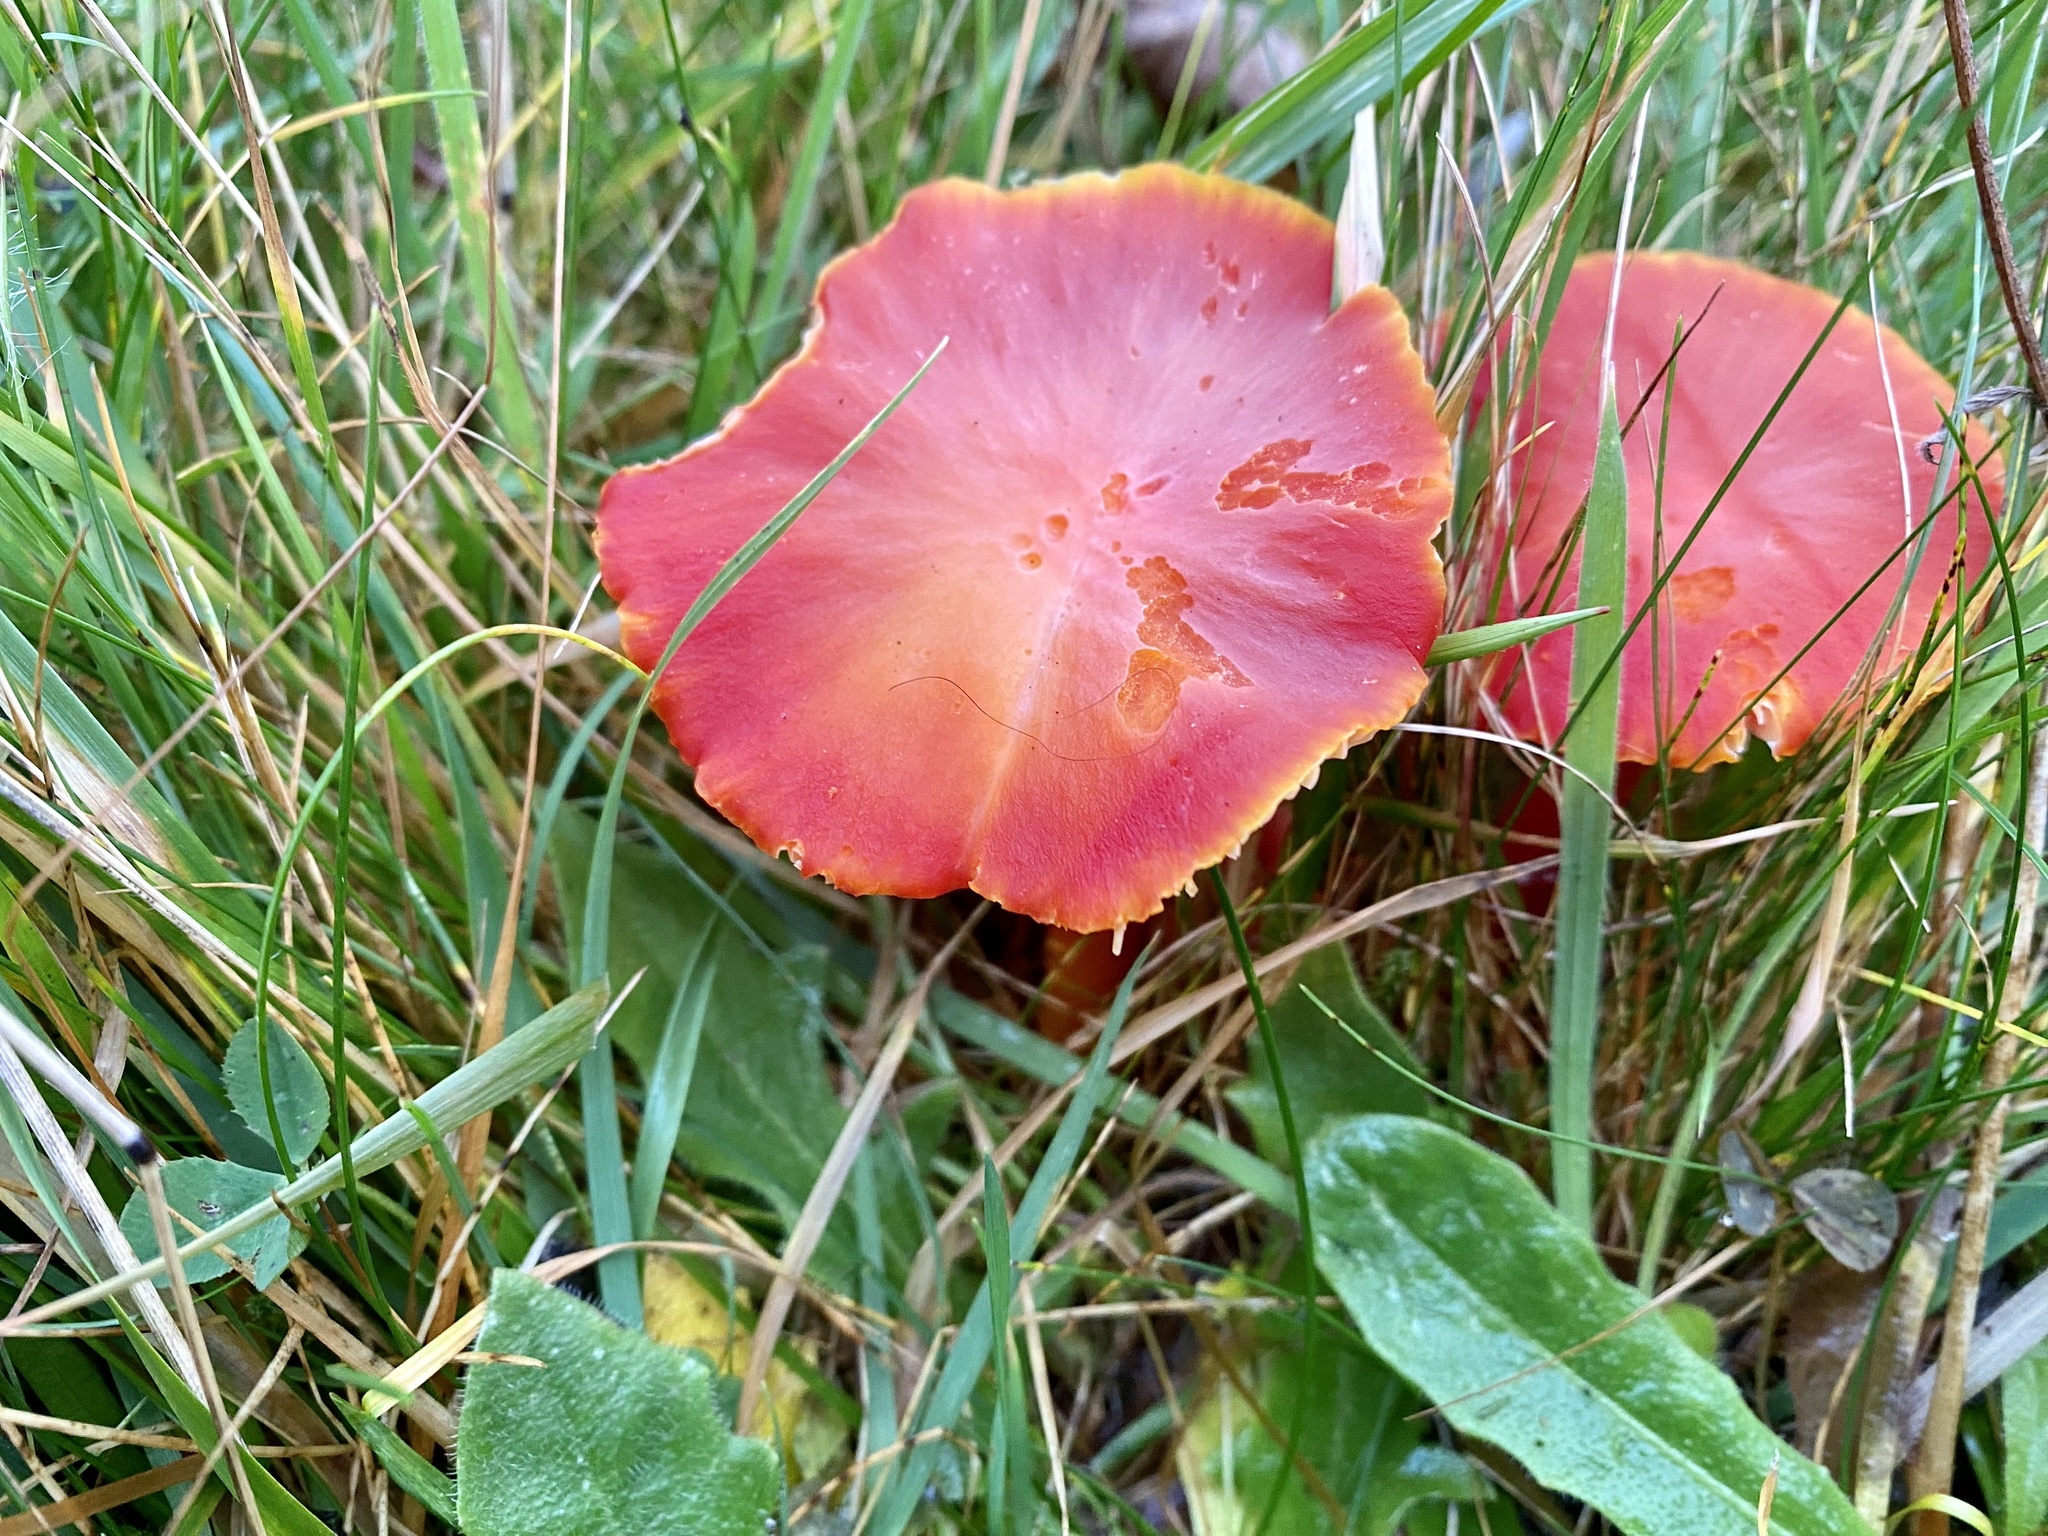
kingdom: Fungi
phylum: Basidiomycota
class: Agaricomycetes
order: Agaricales
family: Hygrophoraceae
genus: Hygrocybe
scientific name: Hygrocybe coccinea
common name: Scarlet hood
